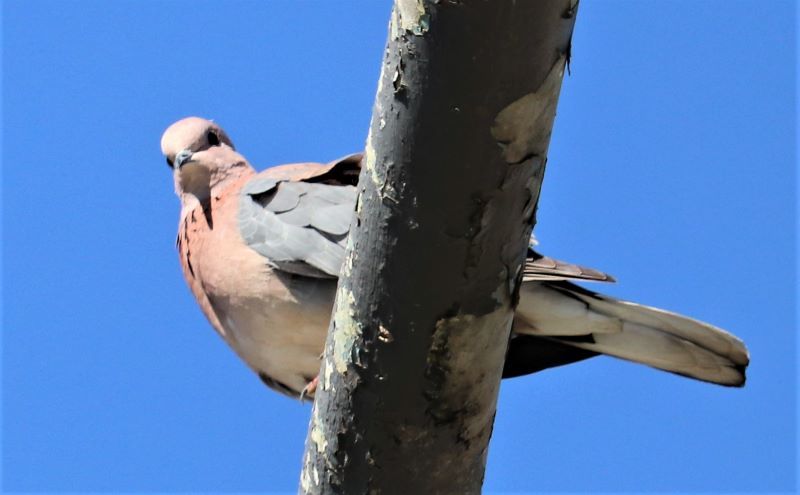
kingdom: Animalia
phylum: Chordata
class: Aves
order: Columbiformes
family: Columbidae
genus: Spilopelia
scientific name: Spilopelia senegalensis
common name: Laughing dove
